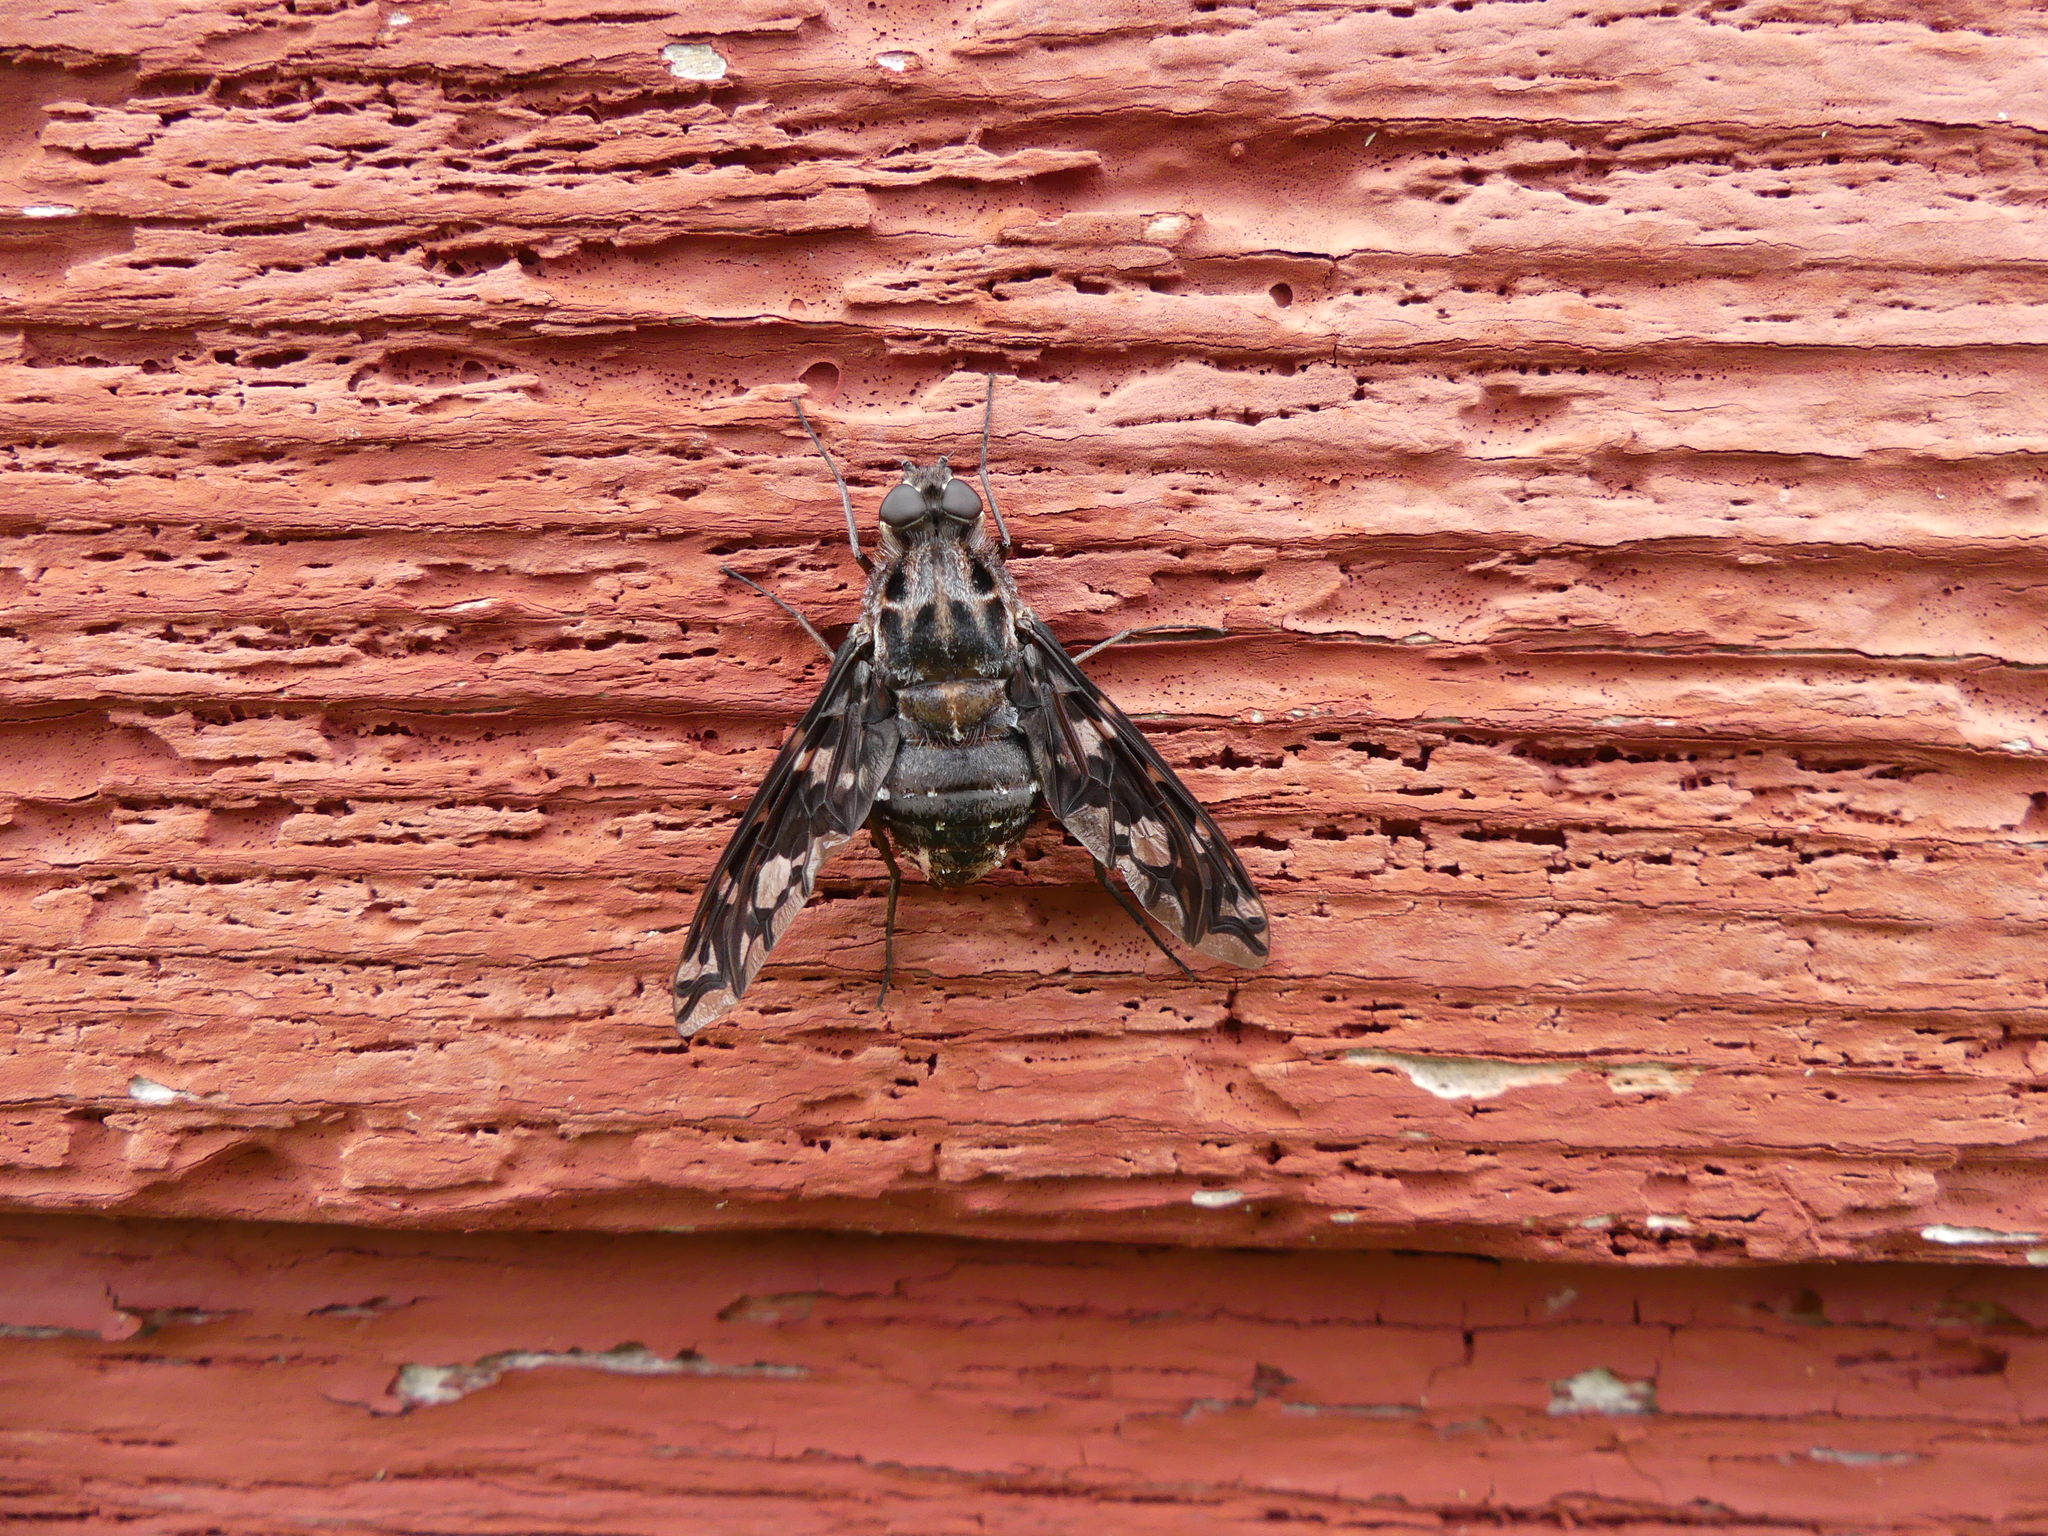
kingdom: Animalia
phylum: Arthropoda
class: Insecta
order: Diptera
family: Bombyliidae
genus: Xenox
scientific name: Xenox tigrinus
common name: Tiger bee fly
